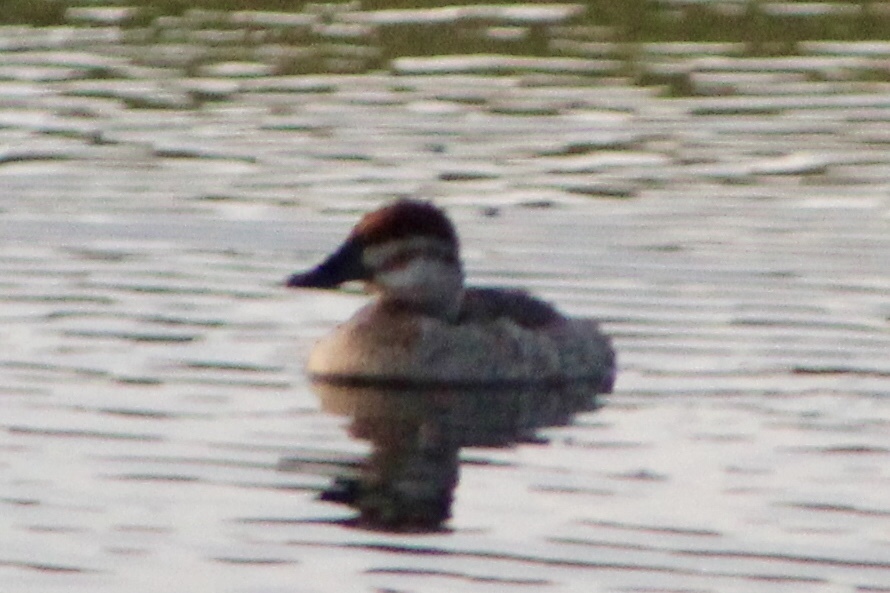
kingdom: Animalia
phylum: Chordata
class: Aves
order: Anseriformes
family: Anatidae
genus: Oxyura
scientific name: Oxyura jamaicensis
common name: Ruddy duck
